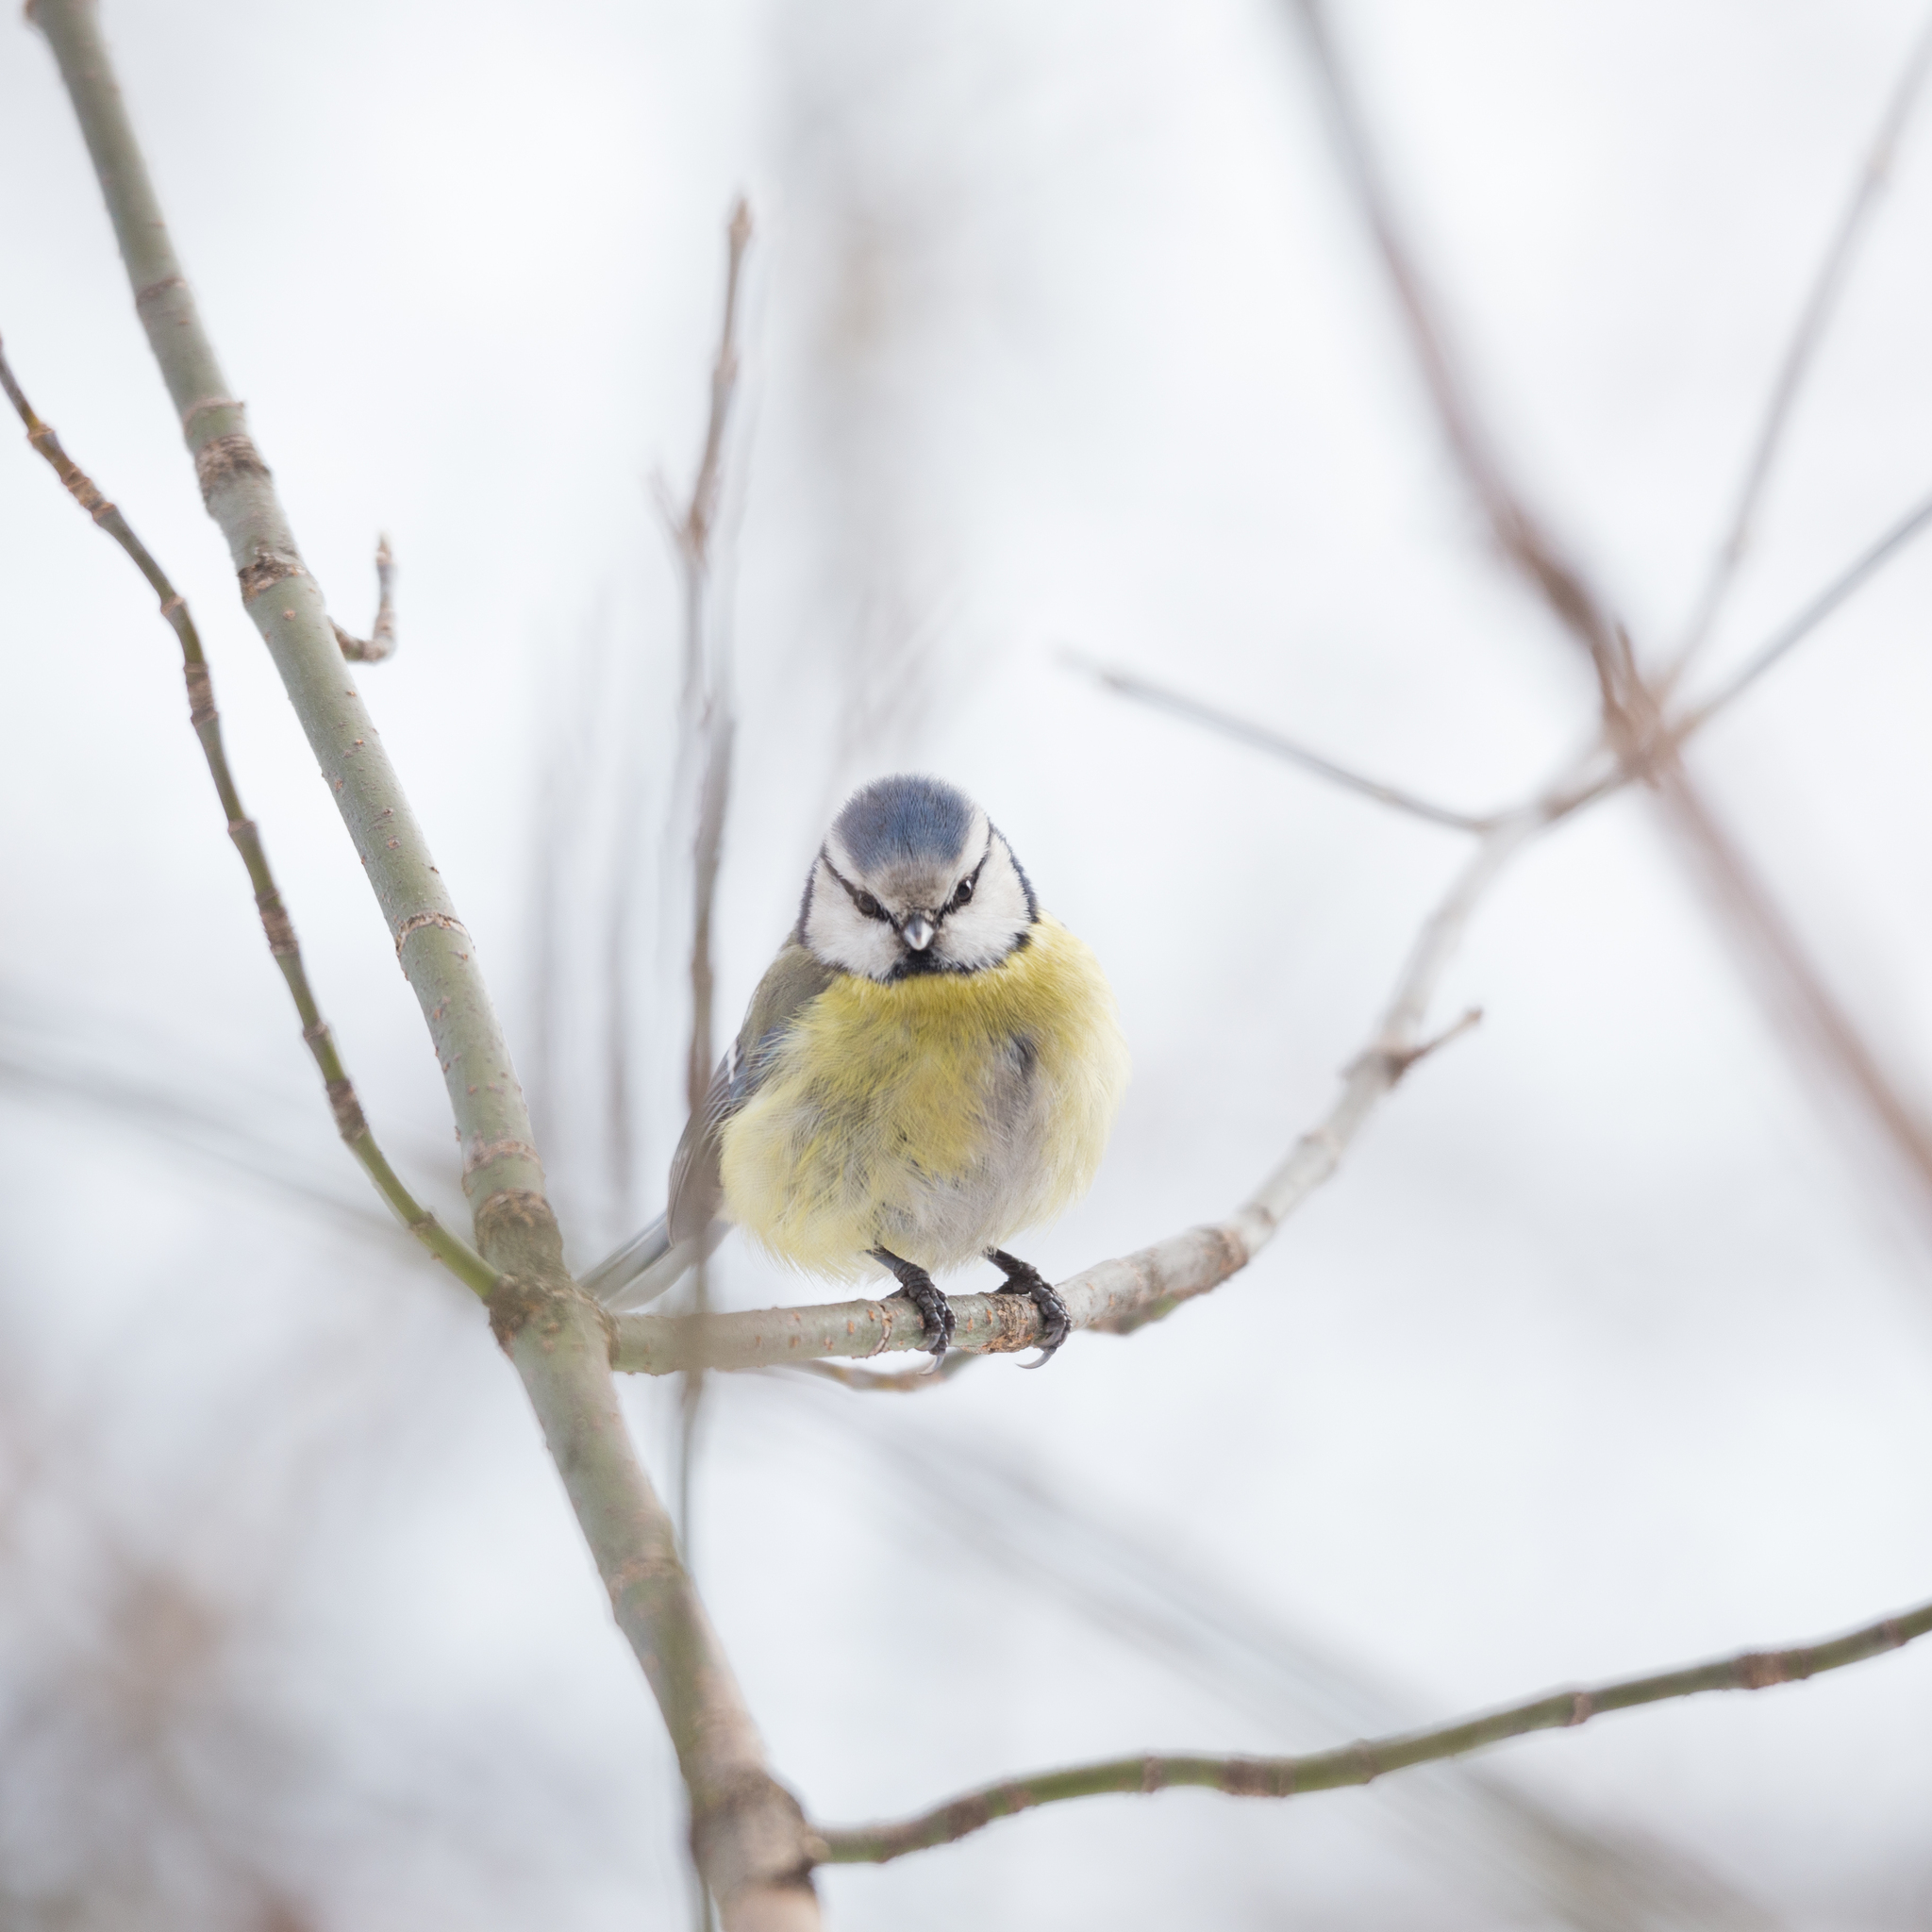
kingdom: Animalia
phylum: Chordata
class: Aves
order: Passeriformes
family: Paridae
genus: Cyanistes
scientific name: Cyanistes caeruleus
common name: Eurasian blue tit
